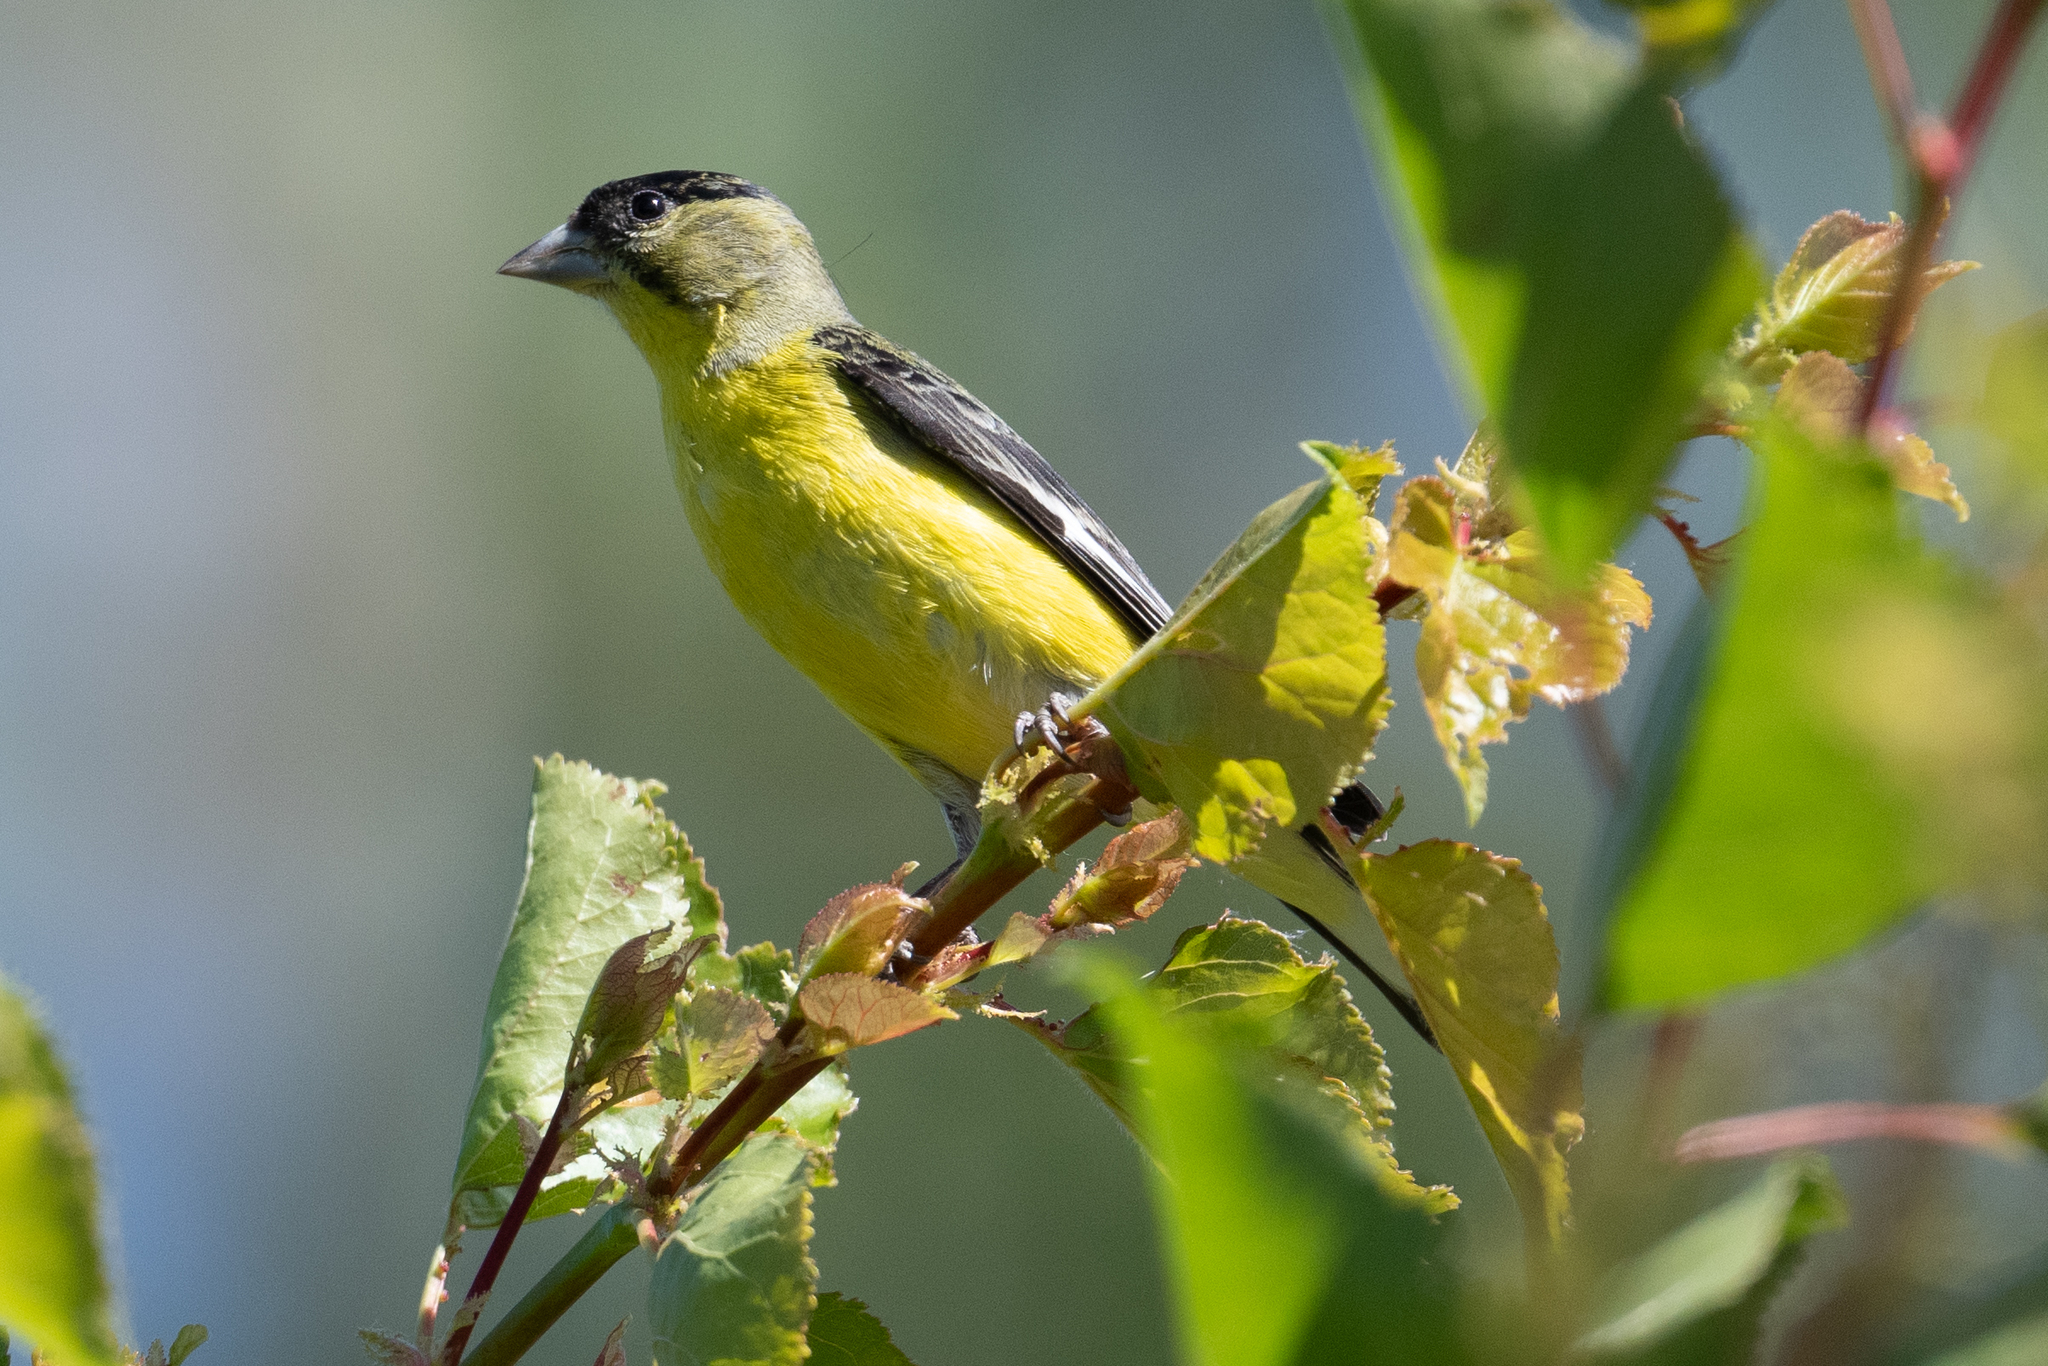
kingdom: Animalia
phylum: Chordata
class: Aves
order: Passeriformes
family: Fringillidae
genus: Spinus
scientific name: Spinus psaltria
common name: Lesser goldfinch
